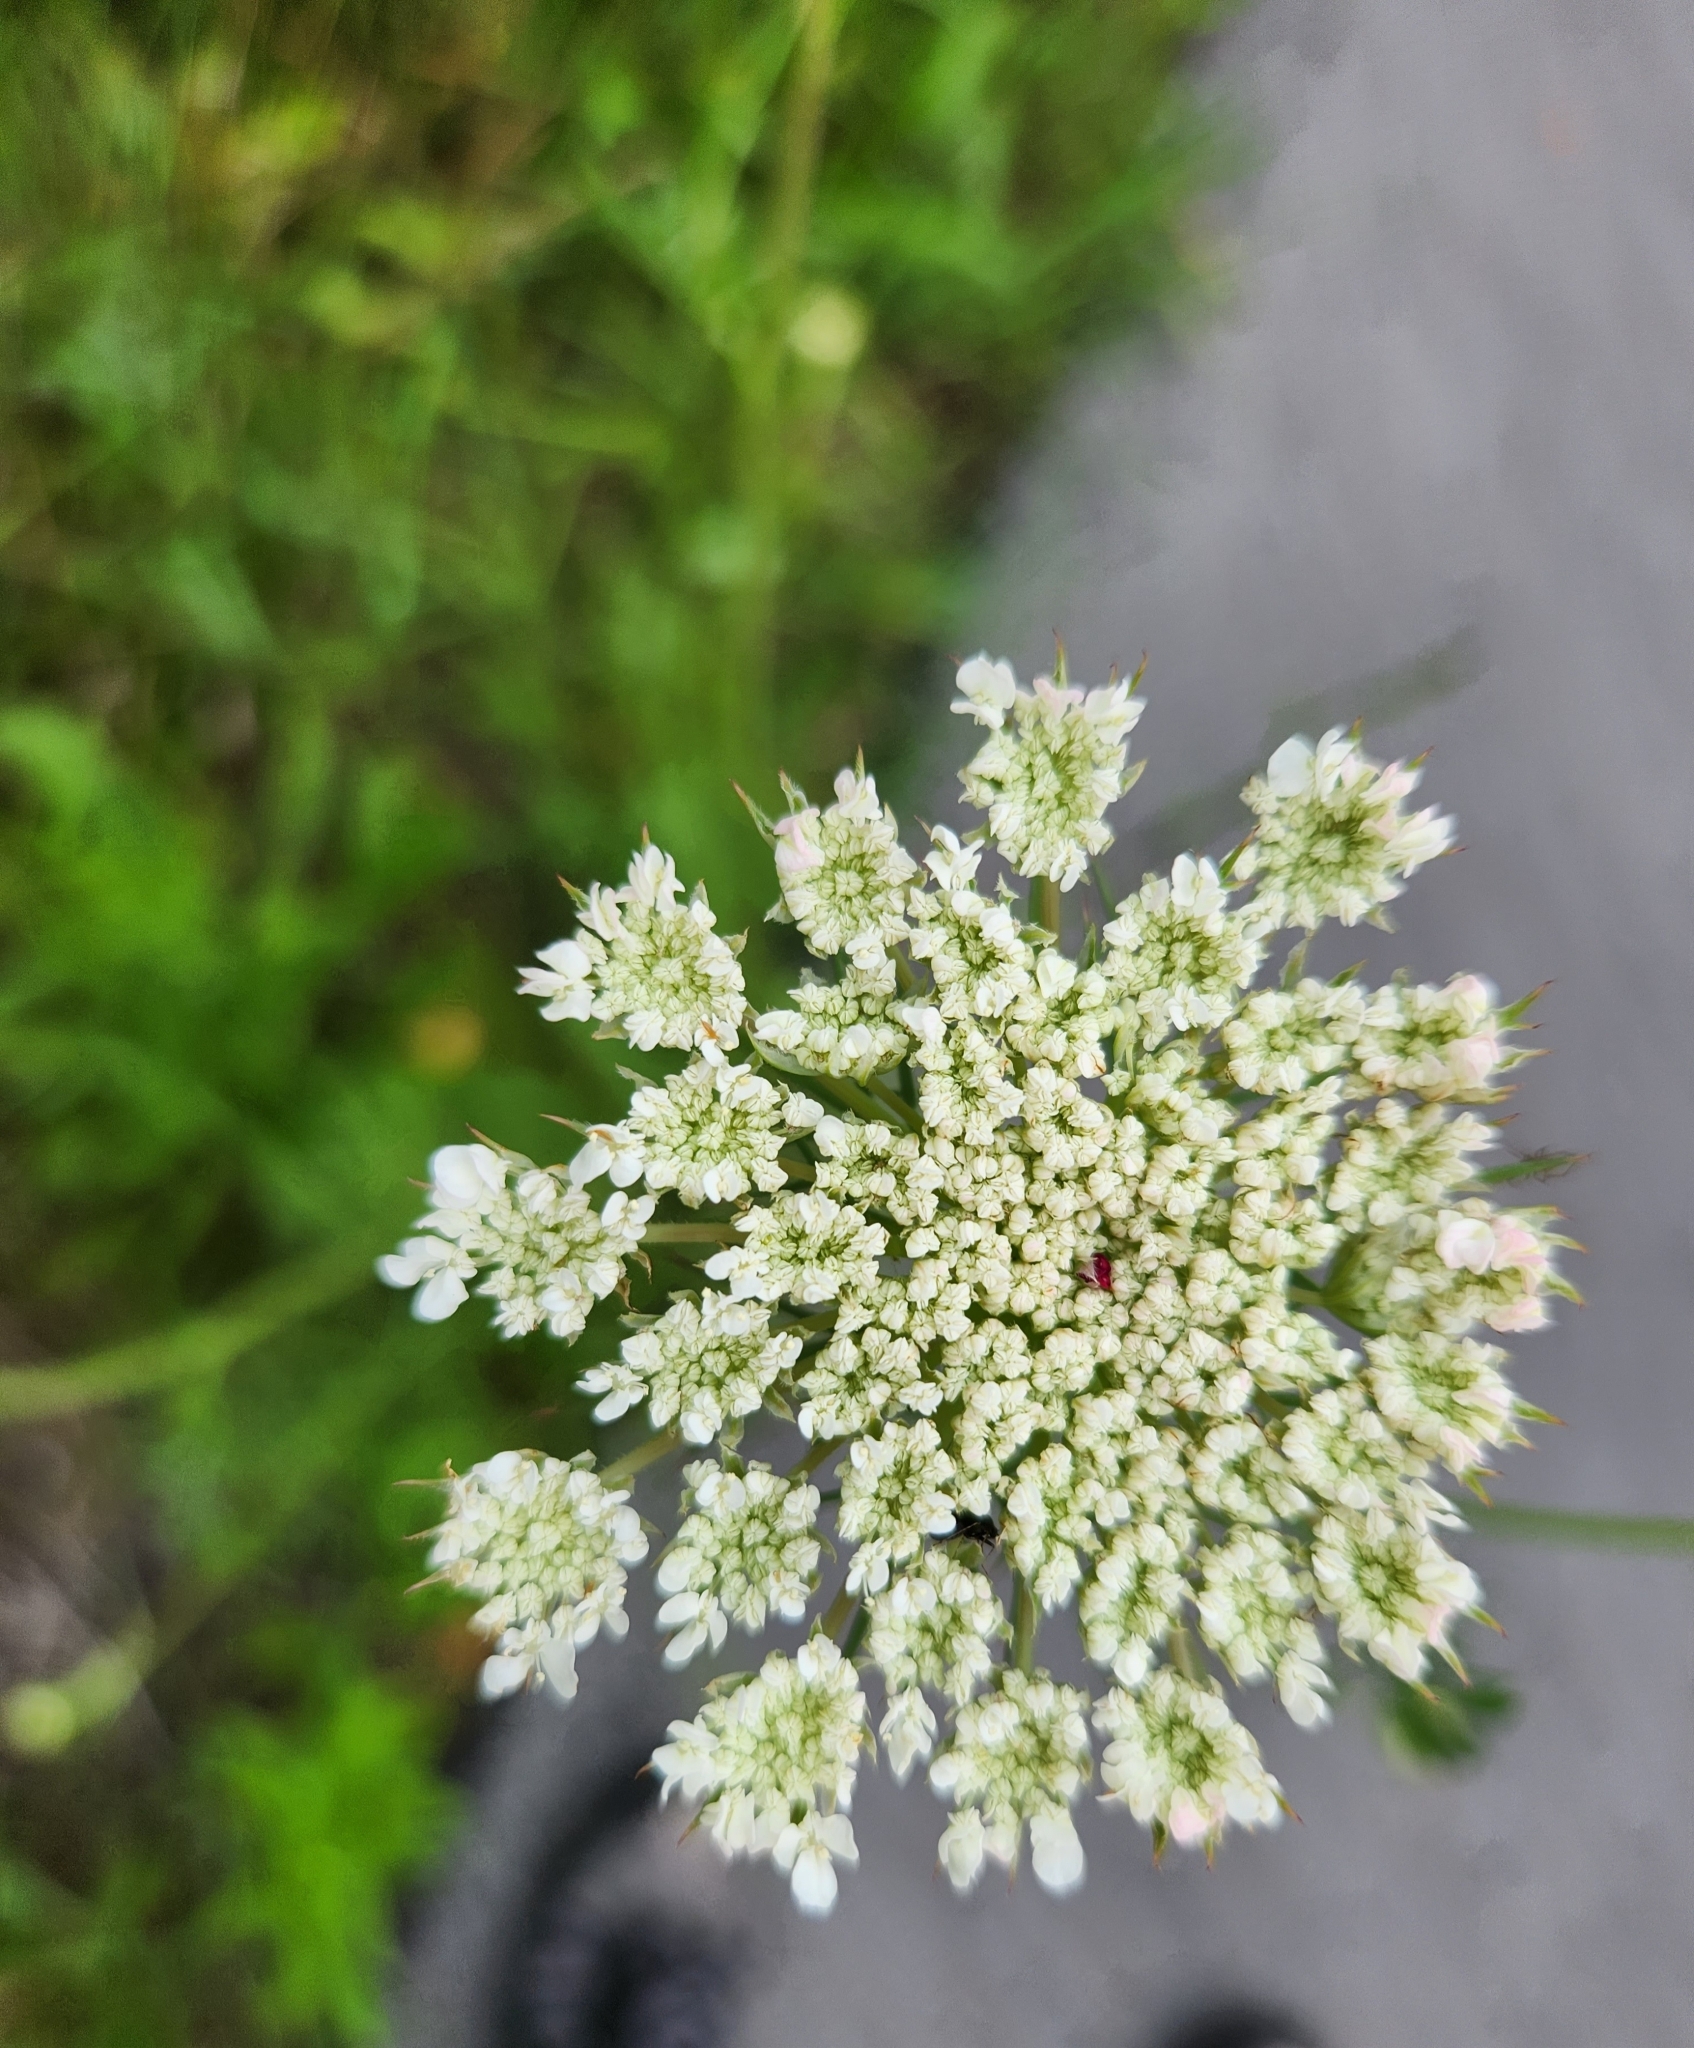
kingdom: Plantae
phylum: Tracheophyta
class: Magnoliopsida
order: Apiales
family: Apiaceae
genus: Daucus
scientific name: Daucus carota
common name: Wild carrot
